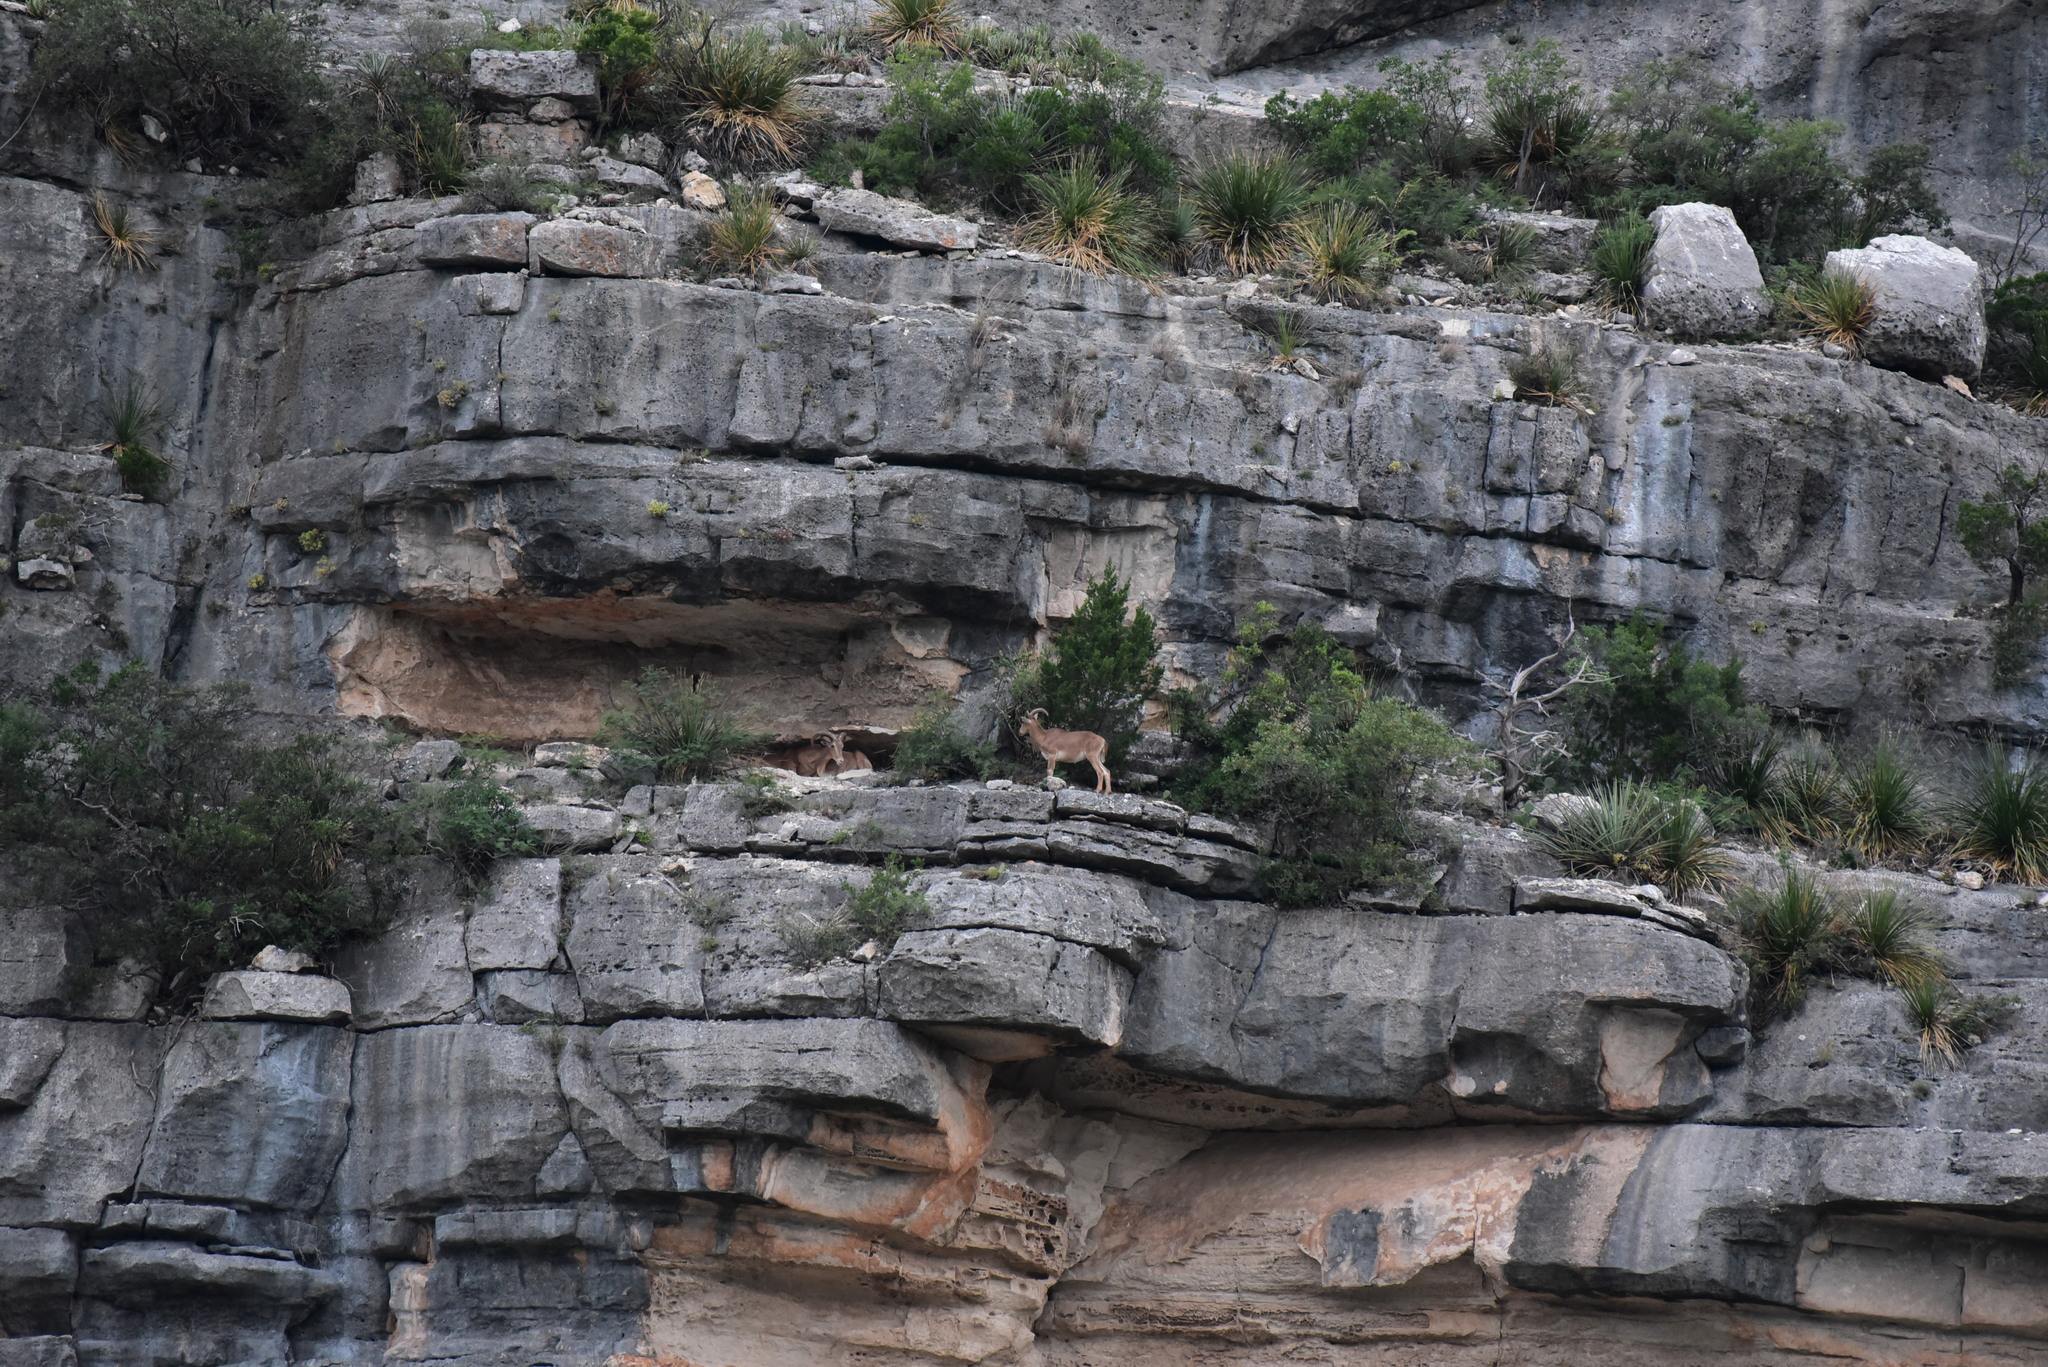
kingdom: Animalia
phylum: Chordata
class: Mammalia
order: Artiodactyla
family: Bovidae
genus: Ammotragus
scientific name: Ammotragus lervia
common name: Barbary sheep
